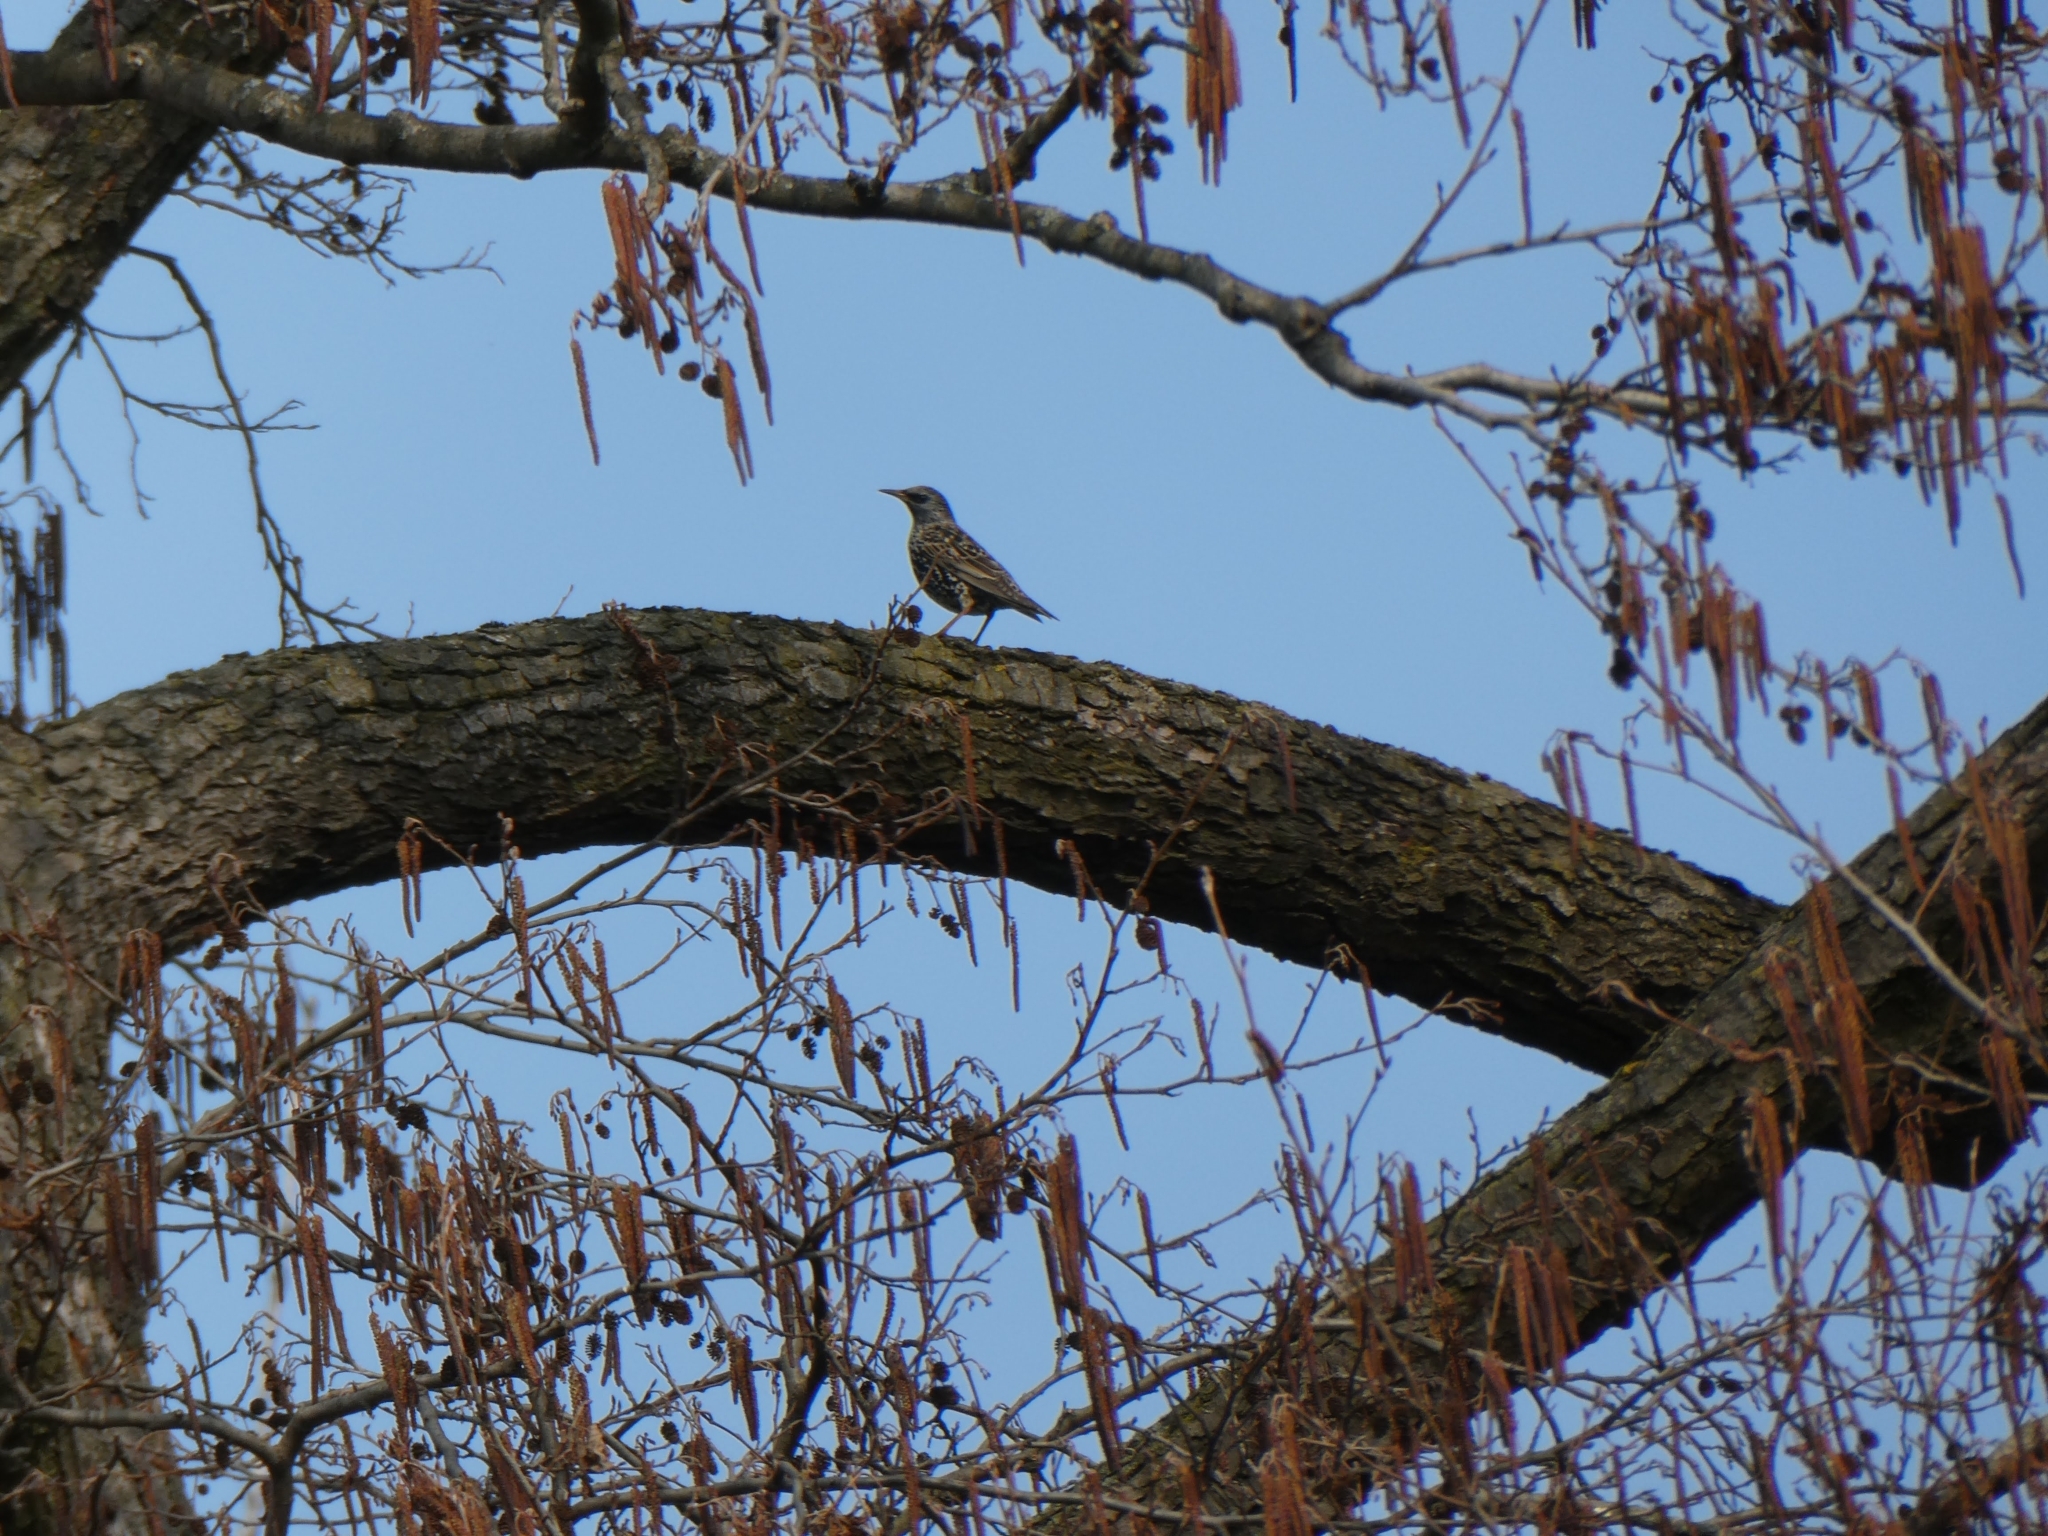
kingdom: Animalia
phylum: Chordata
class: Aves
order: Passeriformes
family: Sturnidae
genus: Sturnus
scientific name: Sturnus vulgaris
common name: Common starling
